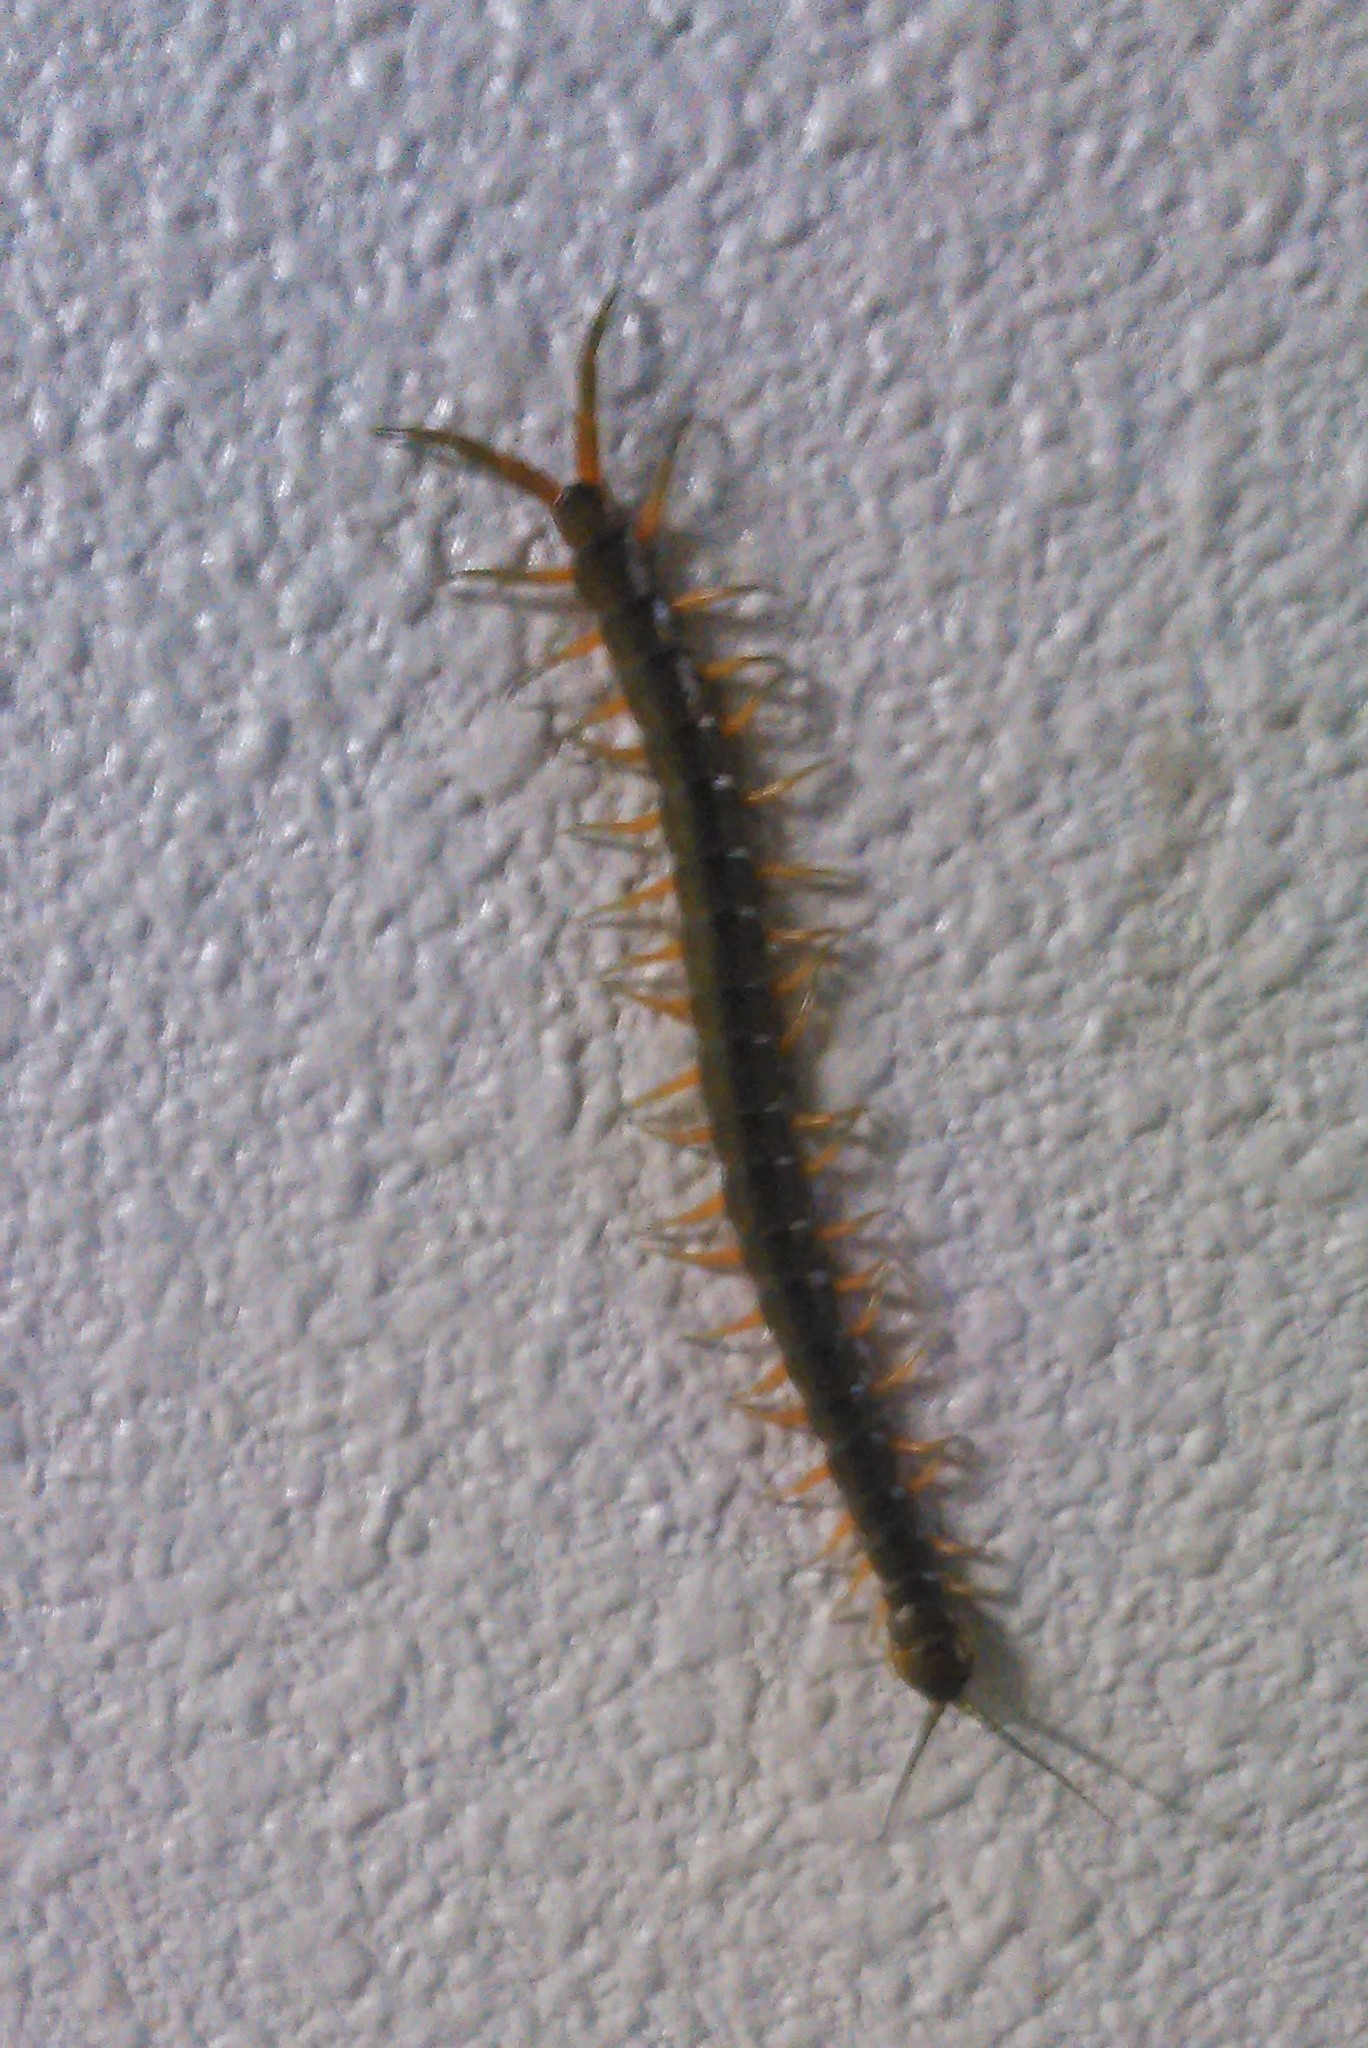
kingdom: Animalia
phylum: Arthropoda
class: Chilopoda
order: Scolopendromorpha
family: Scolopendridae
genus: Scolopendra
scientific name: Scolopendra japonica
